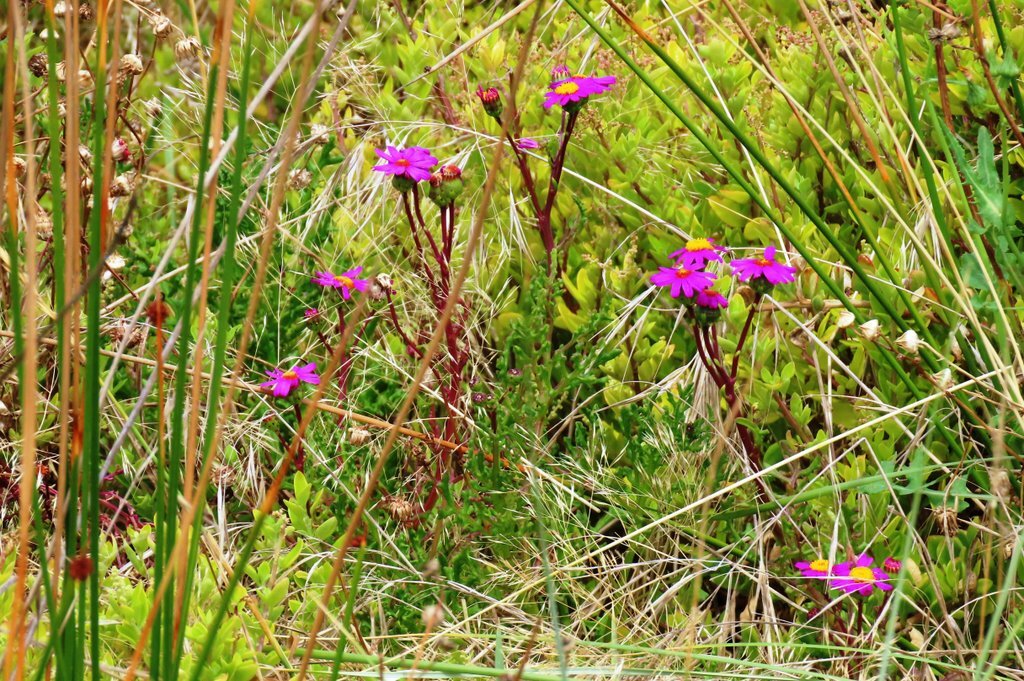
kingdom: Plantae
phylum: Tracheophyta
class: Magnoliopsida
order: Asterales
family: Asteraceae
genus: Senecio
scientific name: Senecio elegans
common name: Purple groundsel
